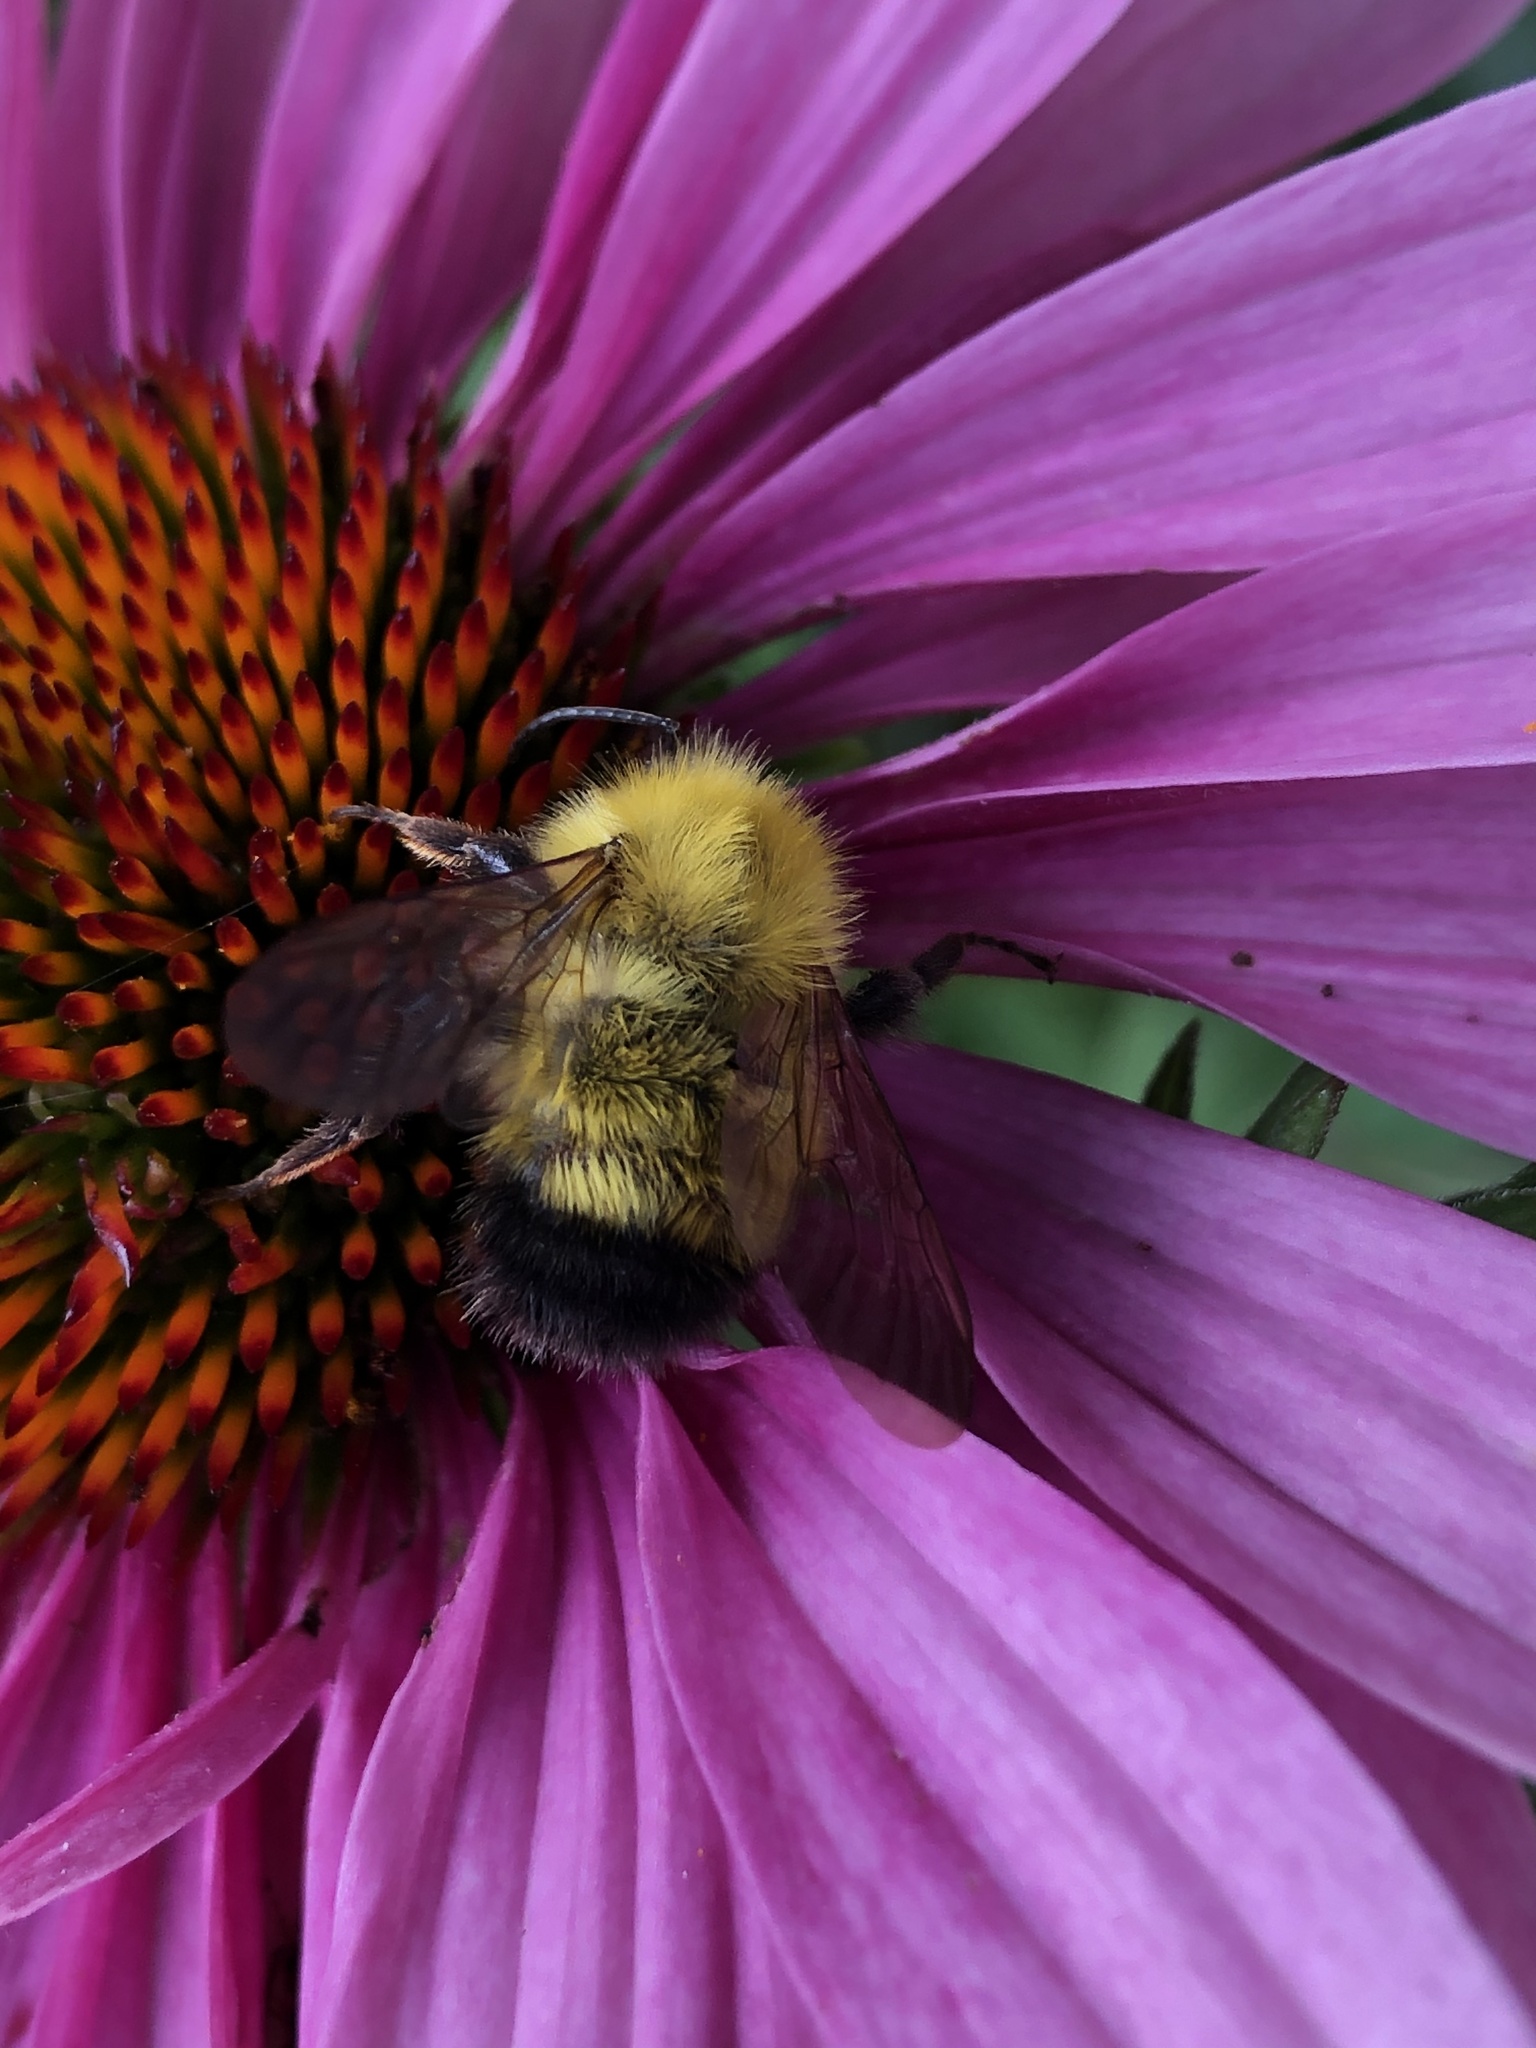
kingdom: Animalia
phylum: Arthropoda
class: Insecta
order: Hymenoptera
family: Apidae
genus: Bombus
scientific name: Bombus perplexus
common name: Confusing bumble bee
